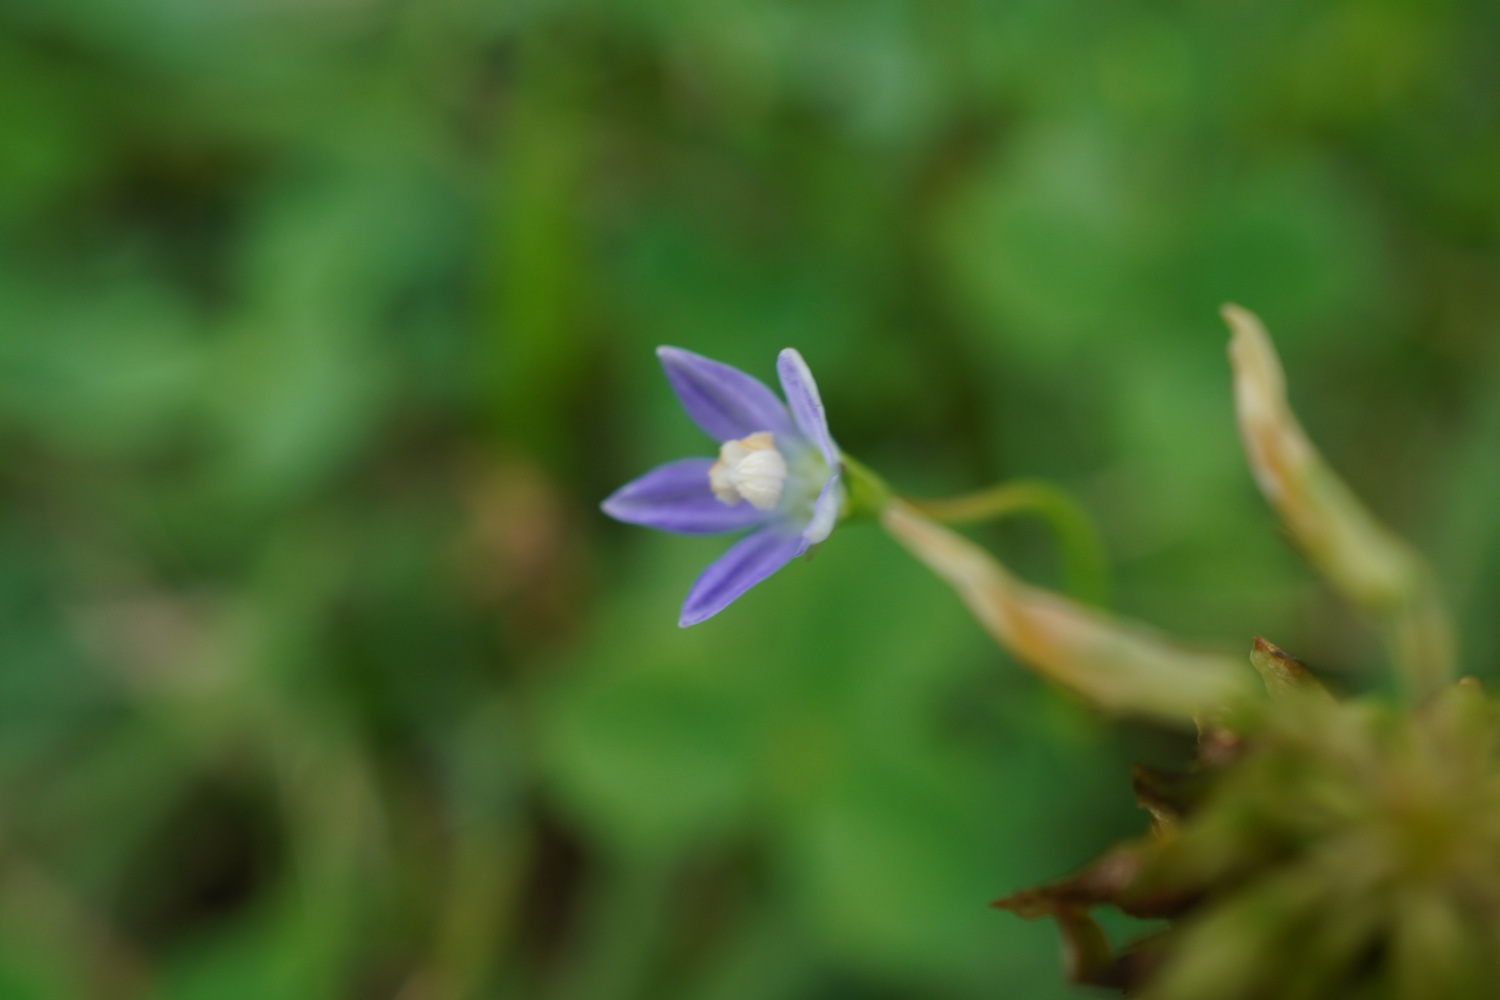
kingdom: Plantae
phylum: Tracheophyta
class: Magnoliopsida
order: Asterales
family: Campanulaceae
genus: Wahlenbergia
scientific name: Wahlenbergia marginata
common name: Southern rockbell
